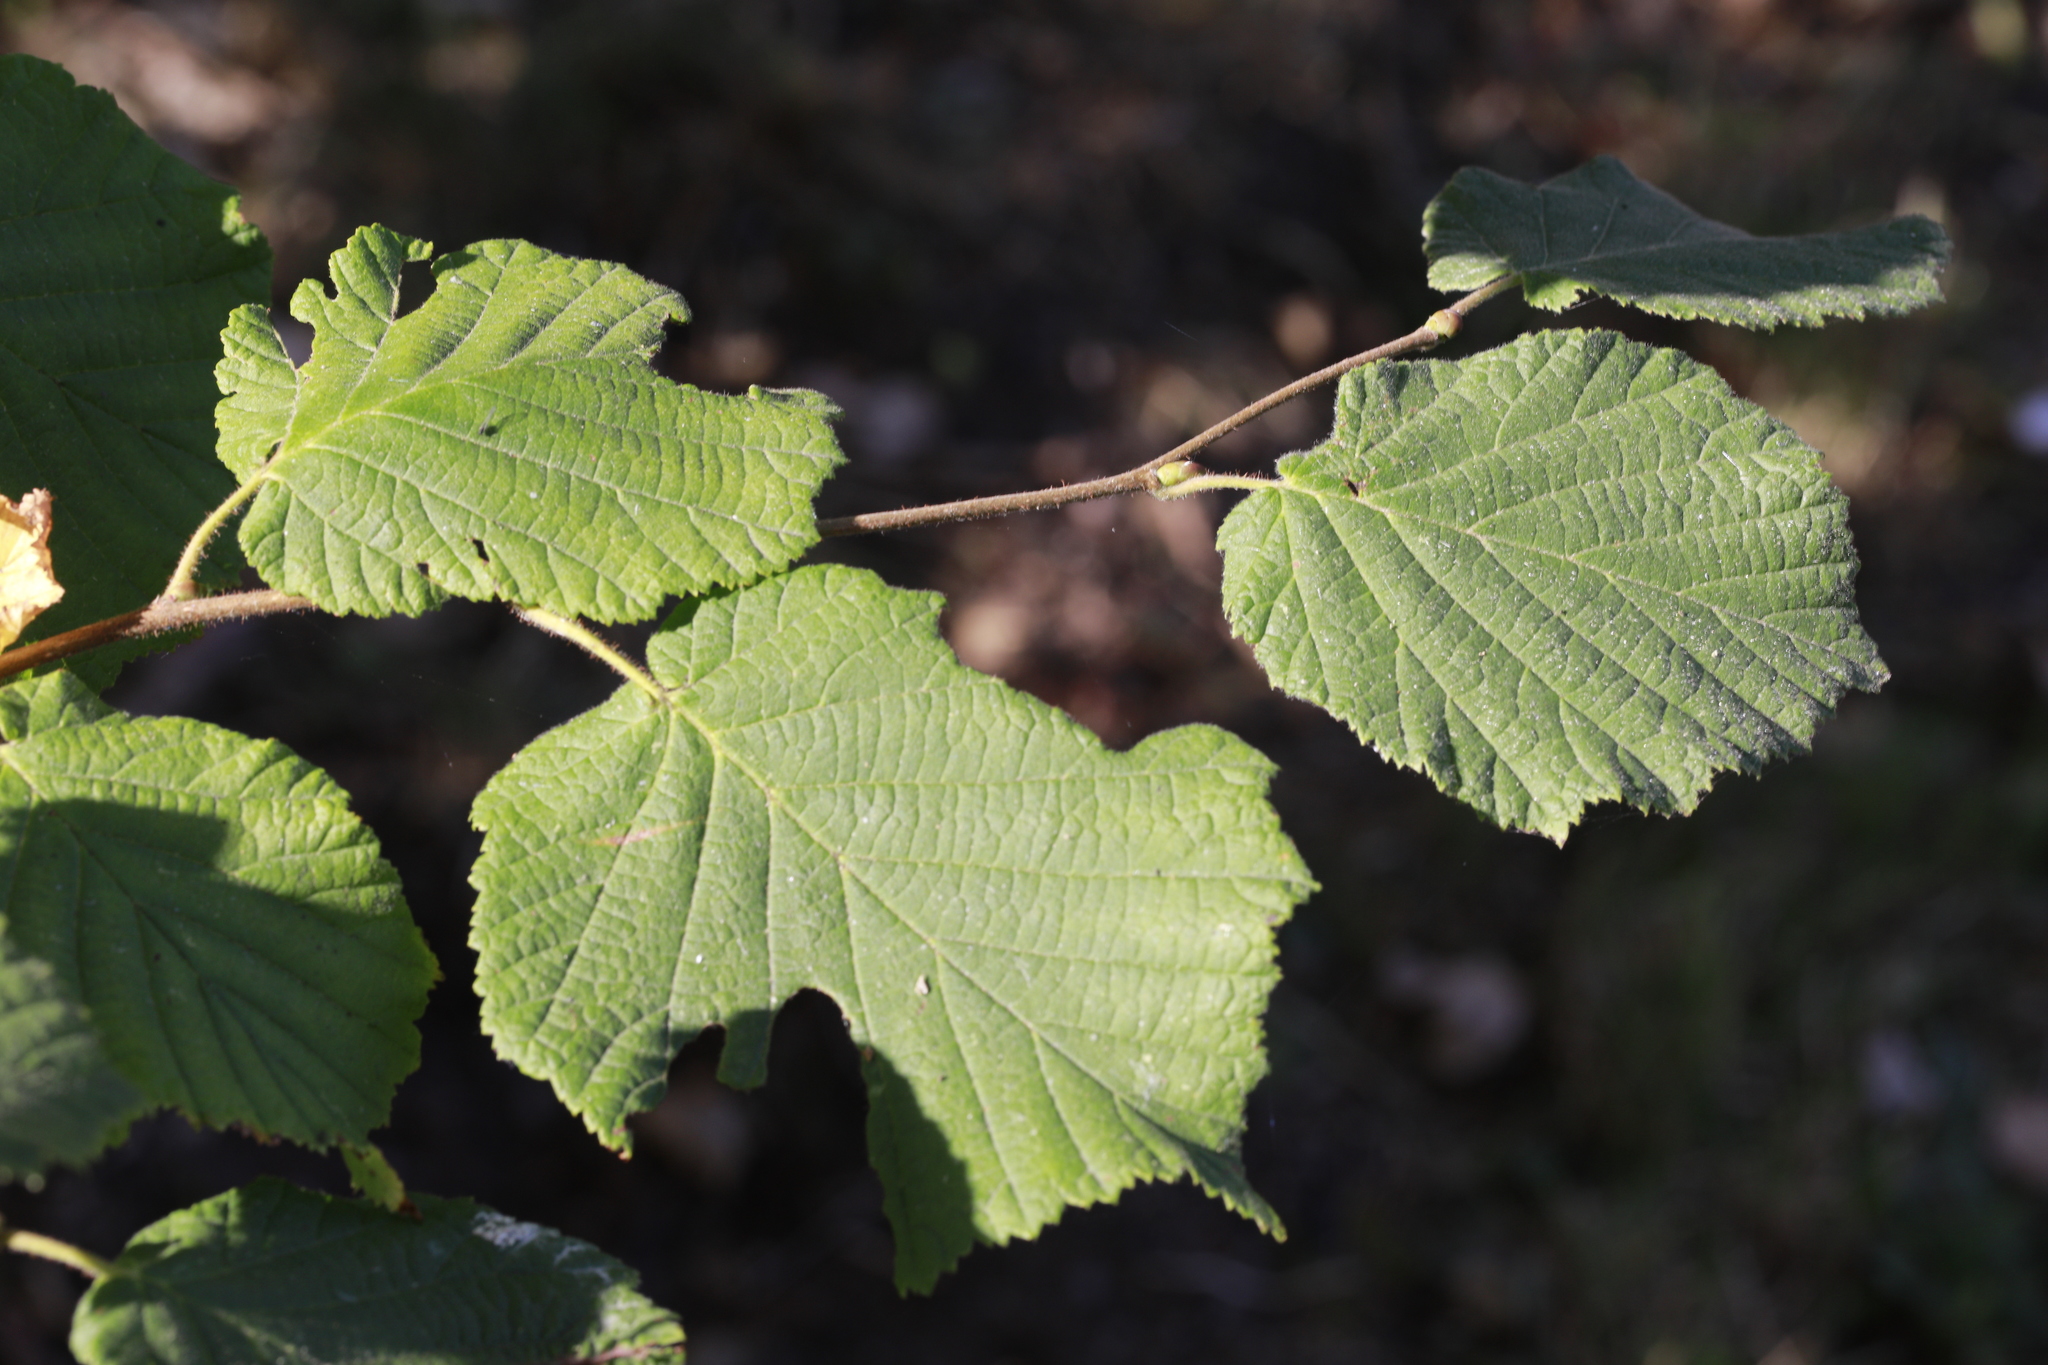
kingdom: Plantae
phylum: Tracheophyta
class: Magnoliopsida
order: Fagales
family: Betulaceae
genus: Corylus
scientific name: Corylus avellana
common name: European hazel
